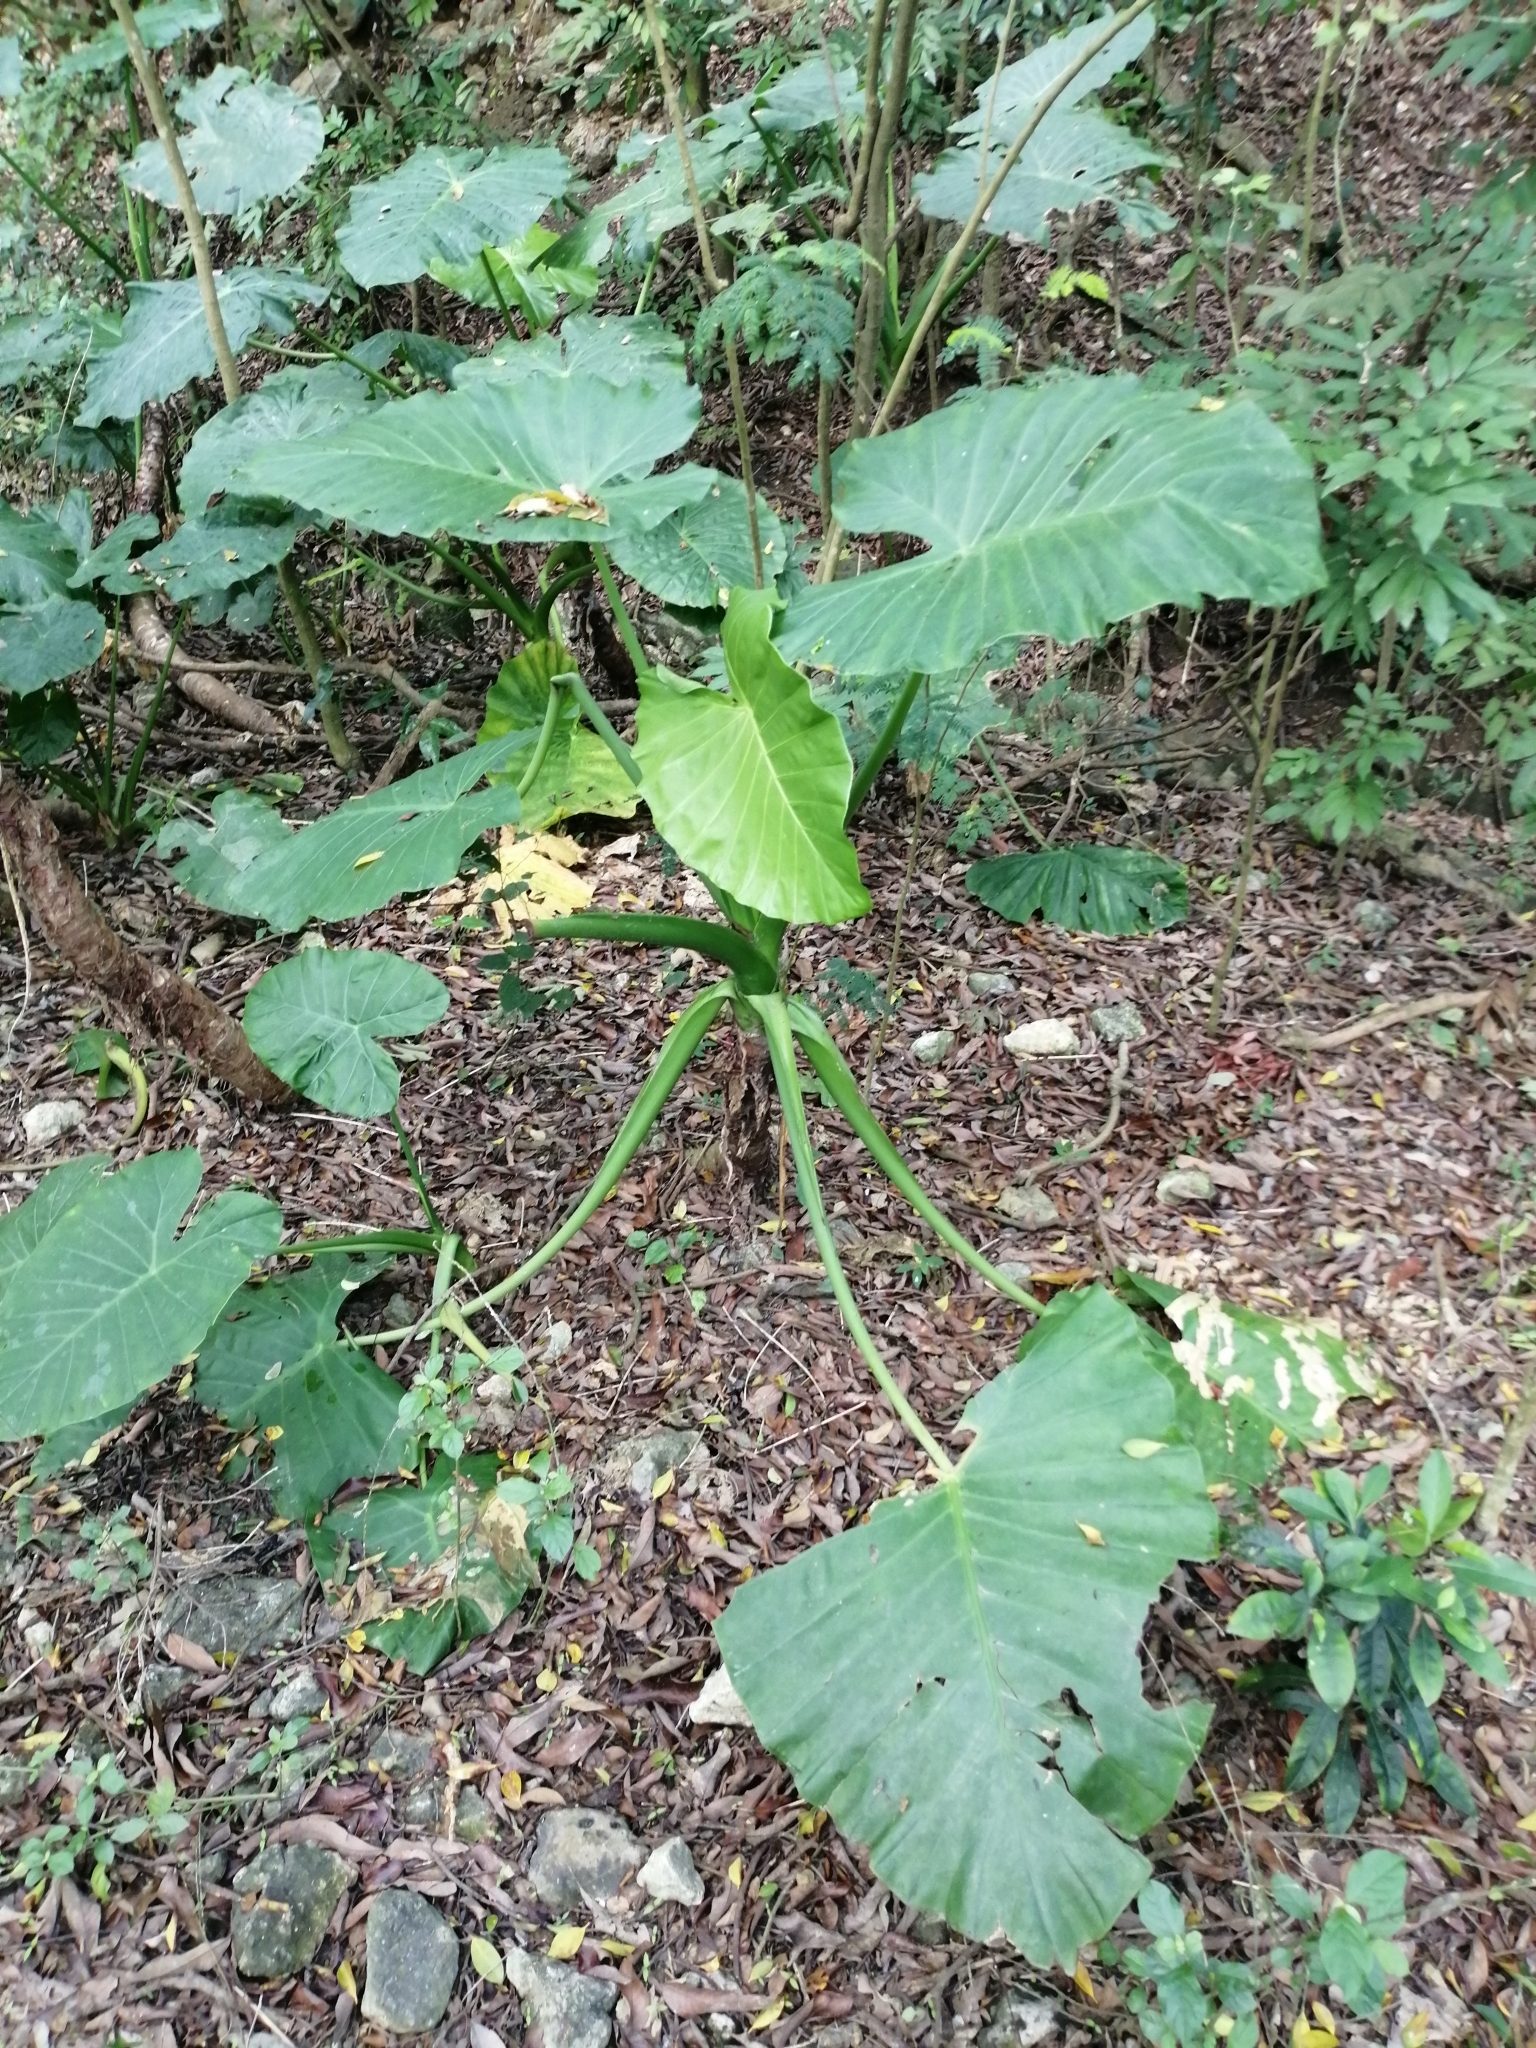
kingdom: Plantae
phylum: Tracheophyta
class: Liliopsida
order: Alismatales
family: Araceae
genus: Alocasia
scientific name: Alocasia odora
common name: Asian taro
